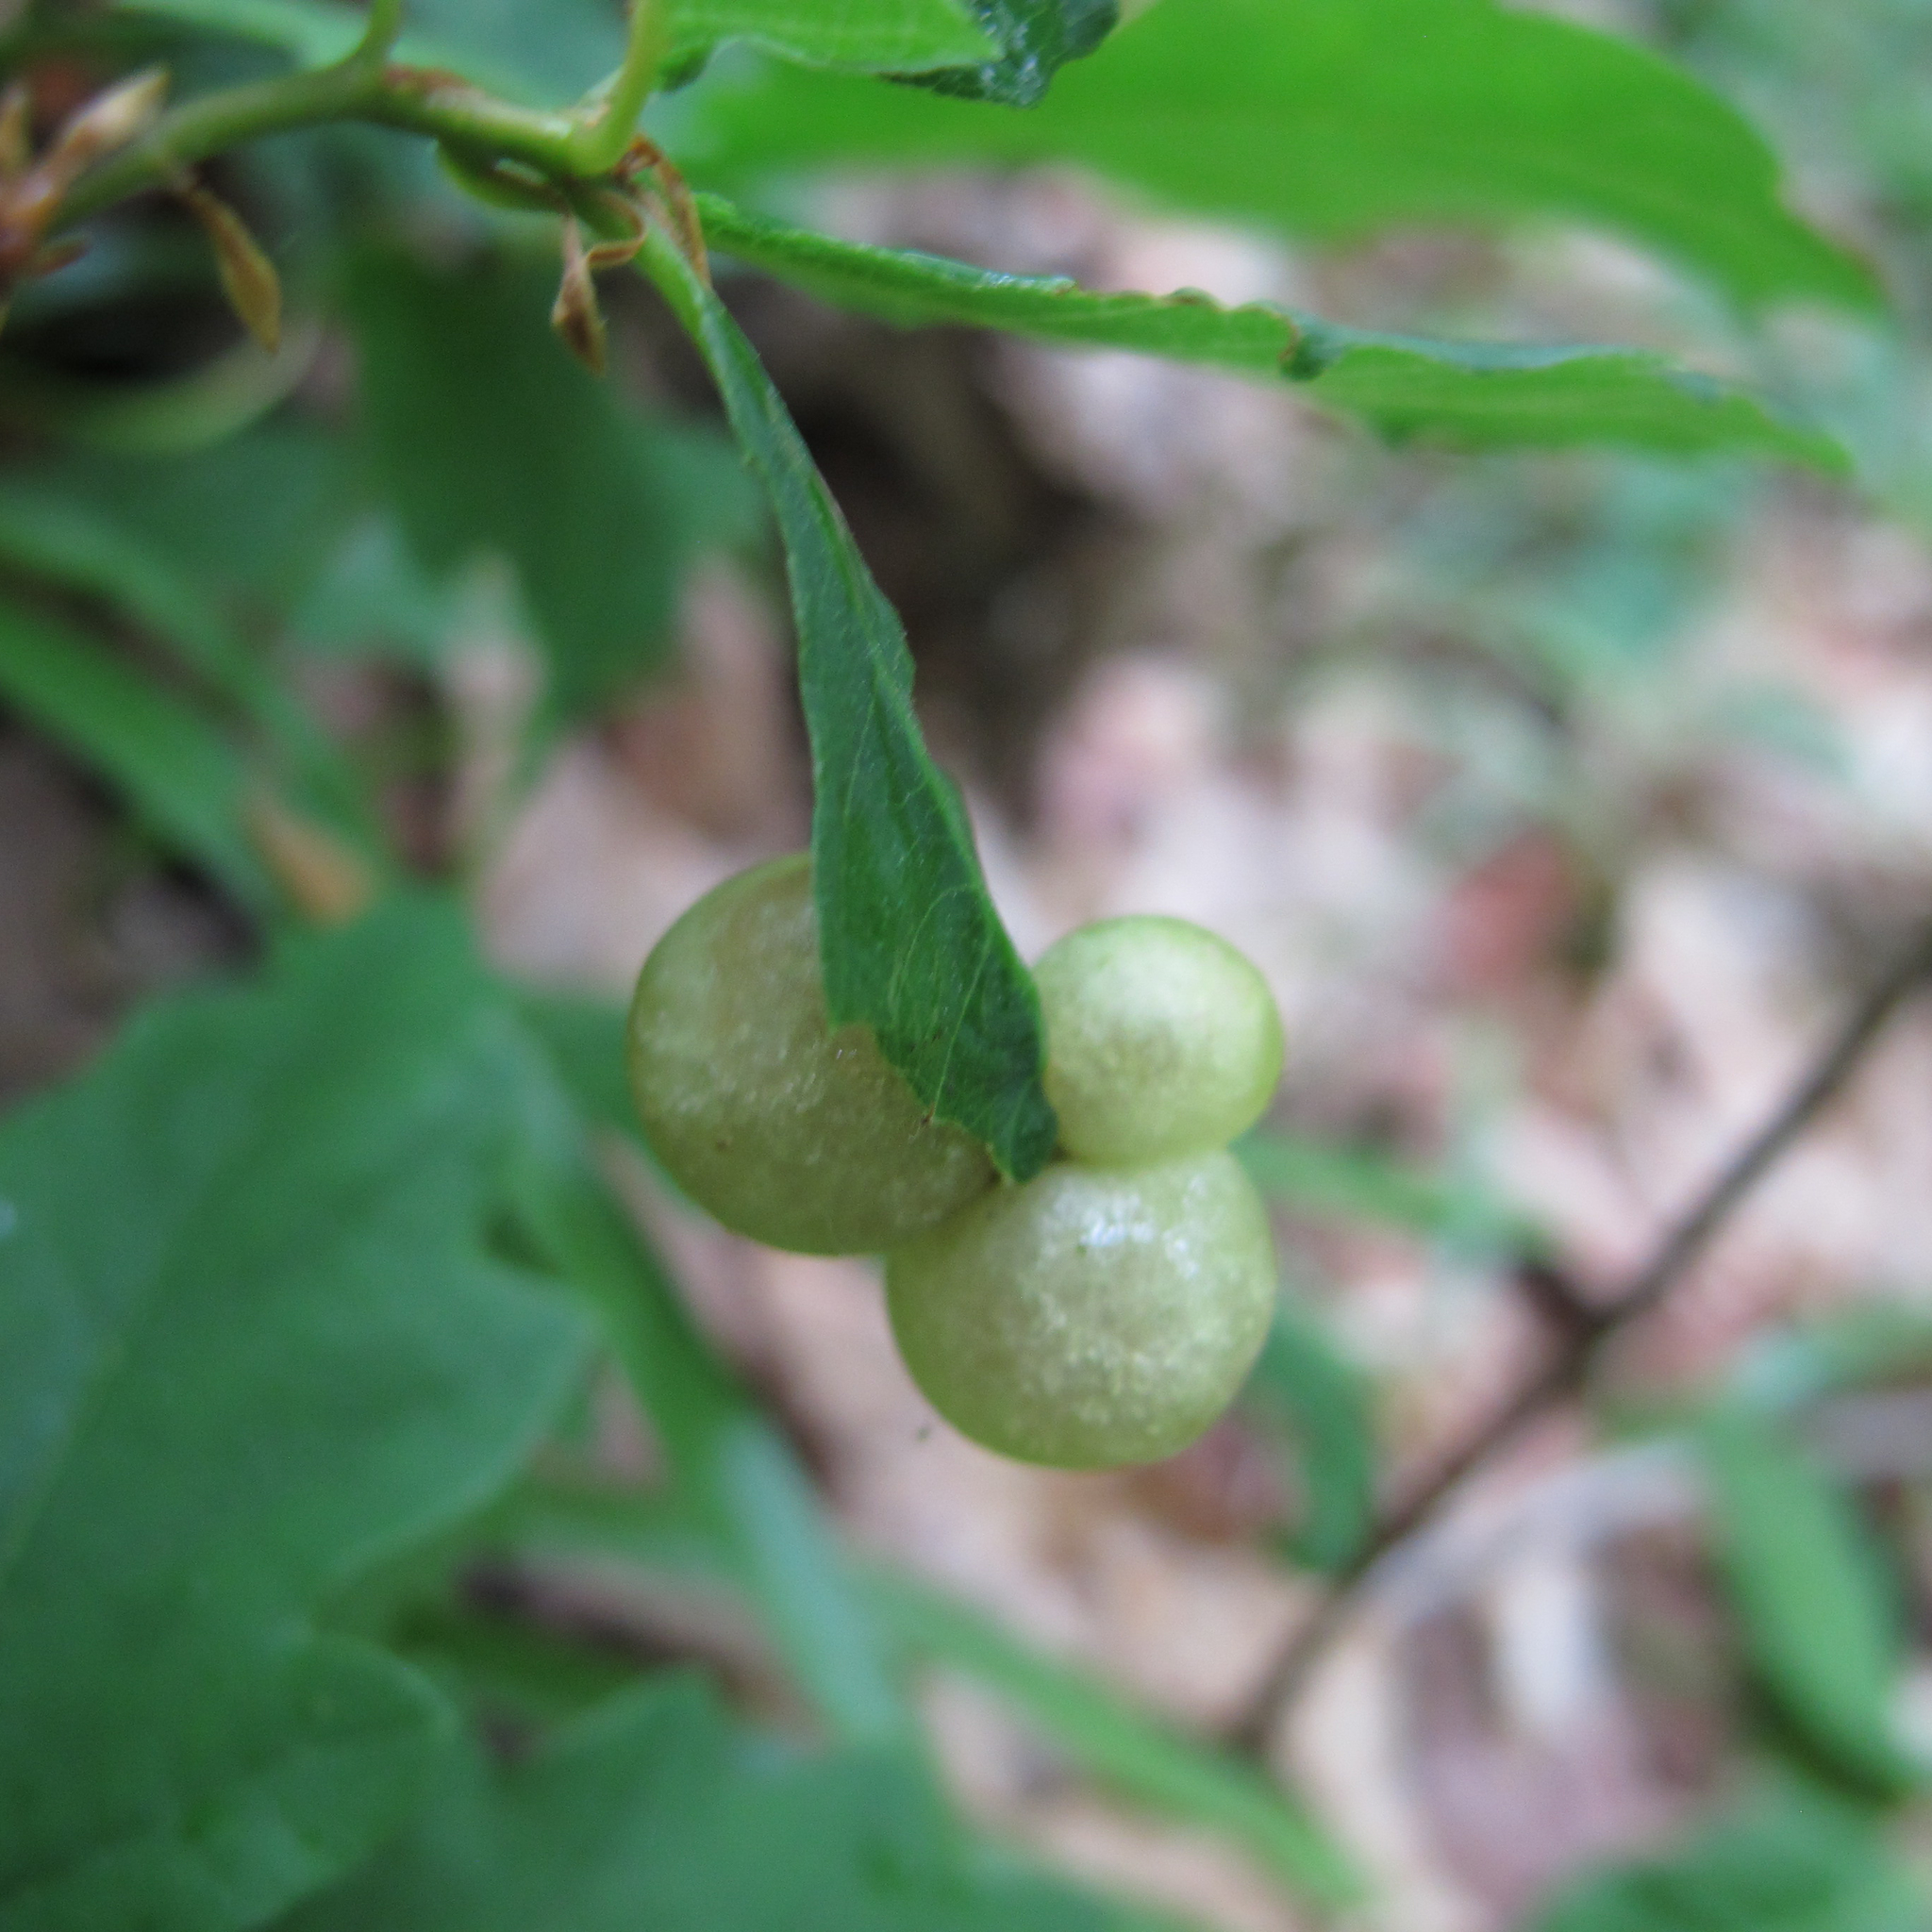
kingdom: Animalia
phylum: Arthropoda
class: Insecta
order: Hymenoptera
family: Cynipidae
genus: Neuroterus
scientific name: Neuroterus quercusbaccarum
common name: Common spangle gall
